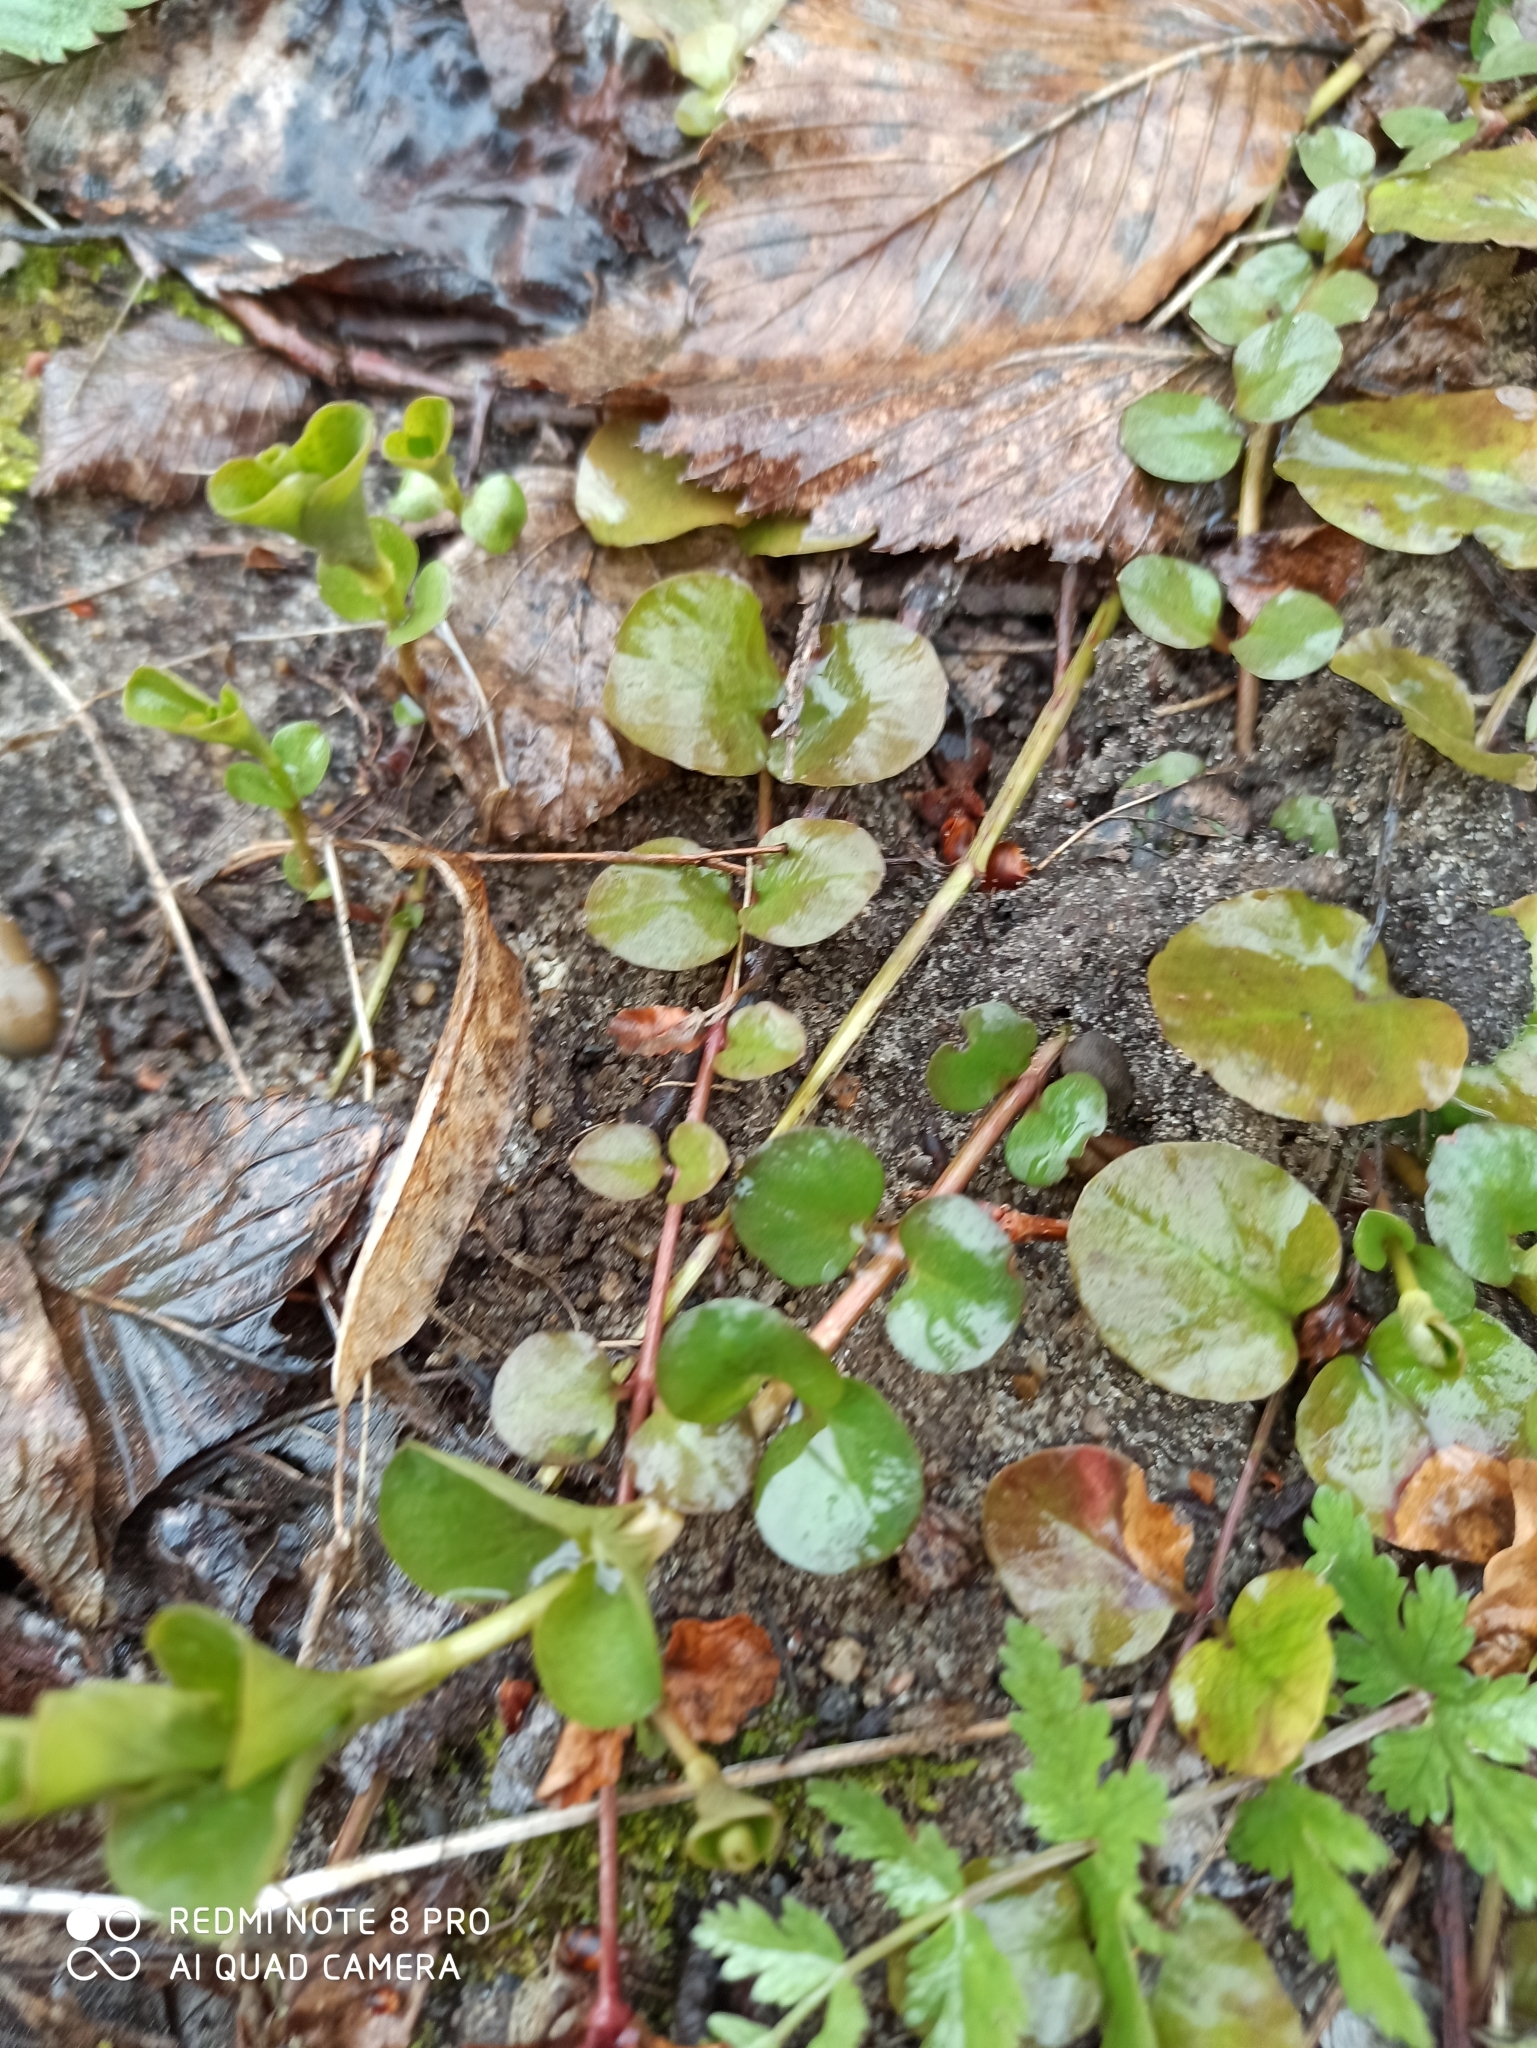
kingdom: Plantae
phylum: Tracheophyta
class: Magnoliopsida
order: Ericales
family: Primulaceae
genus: Lysimachia
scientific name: Lysimachia nummularia
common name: Moneywort
